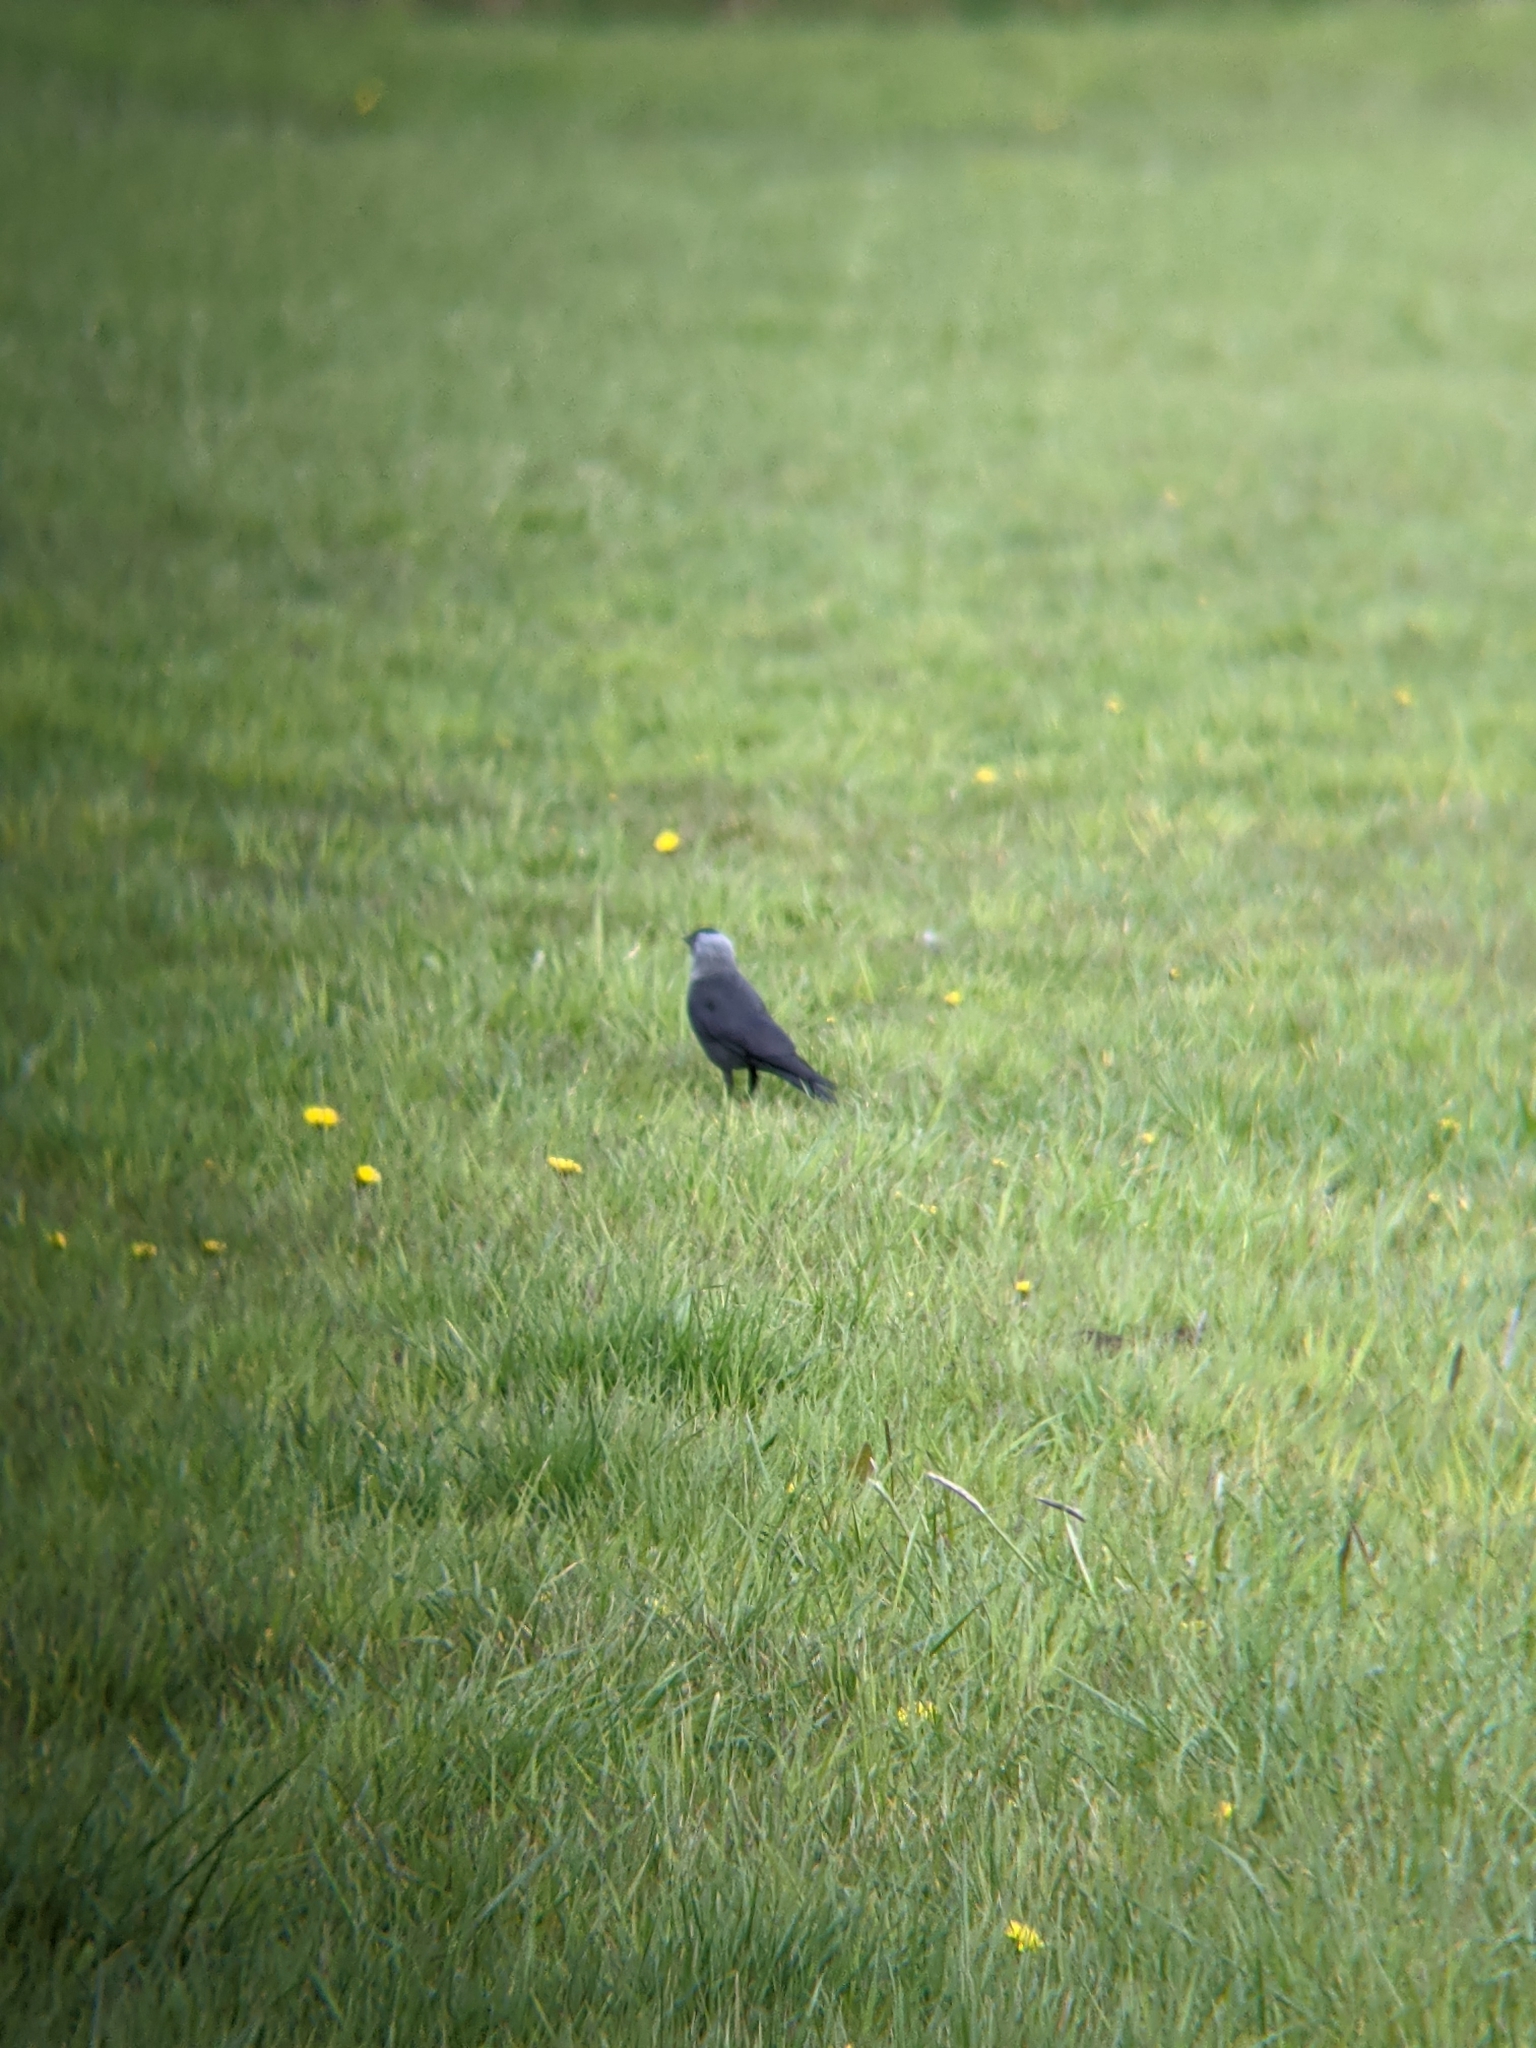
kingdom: Animalia
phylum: Chordata
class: Aves
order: Passeriformes
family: Corvidae
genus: Coloeus
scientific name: Coloeus monedula
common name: Western jackdaw
